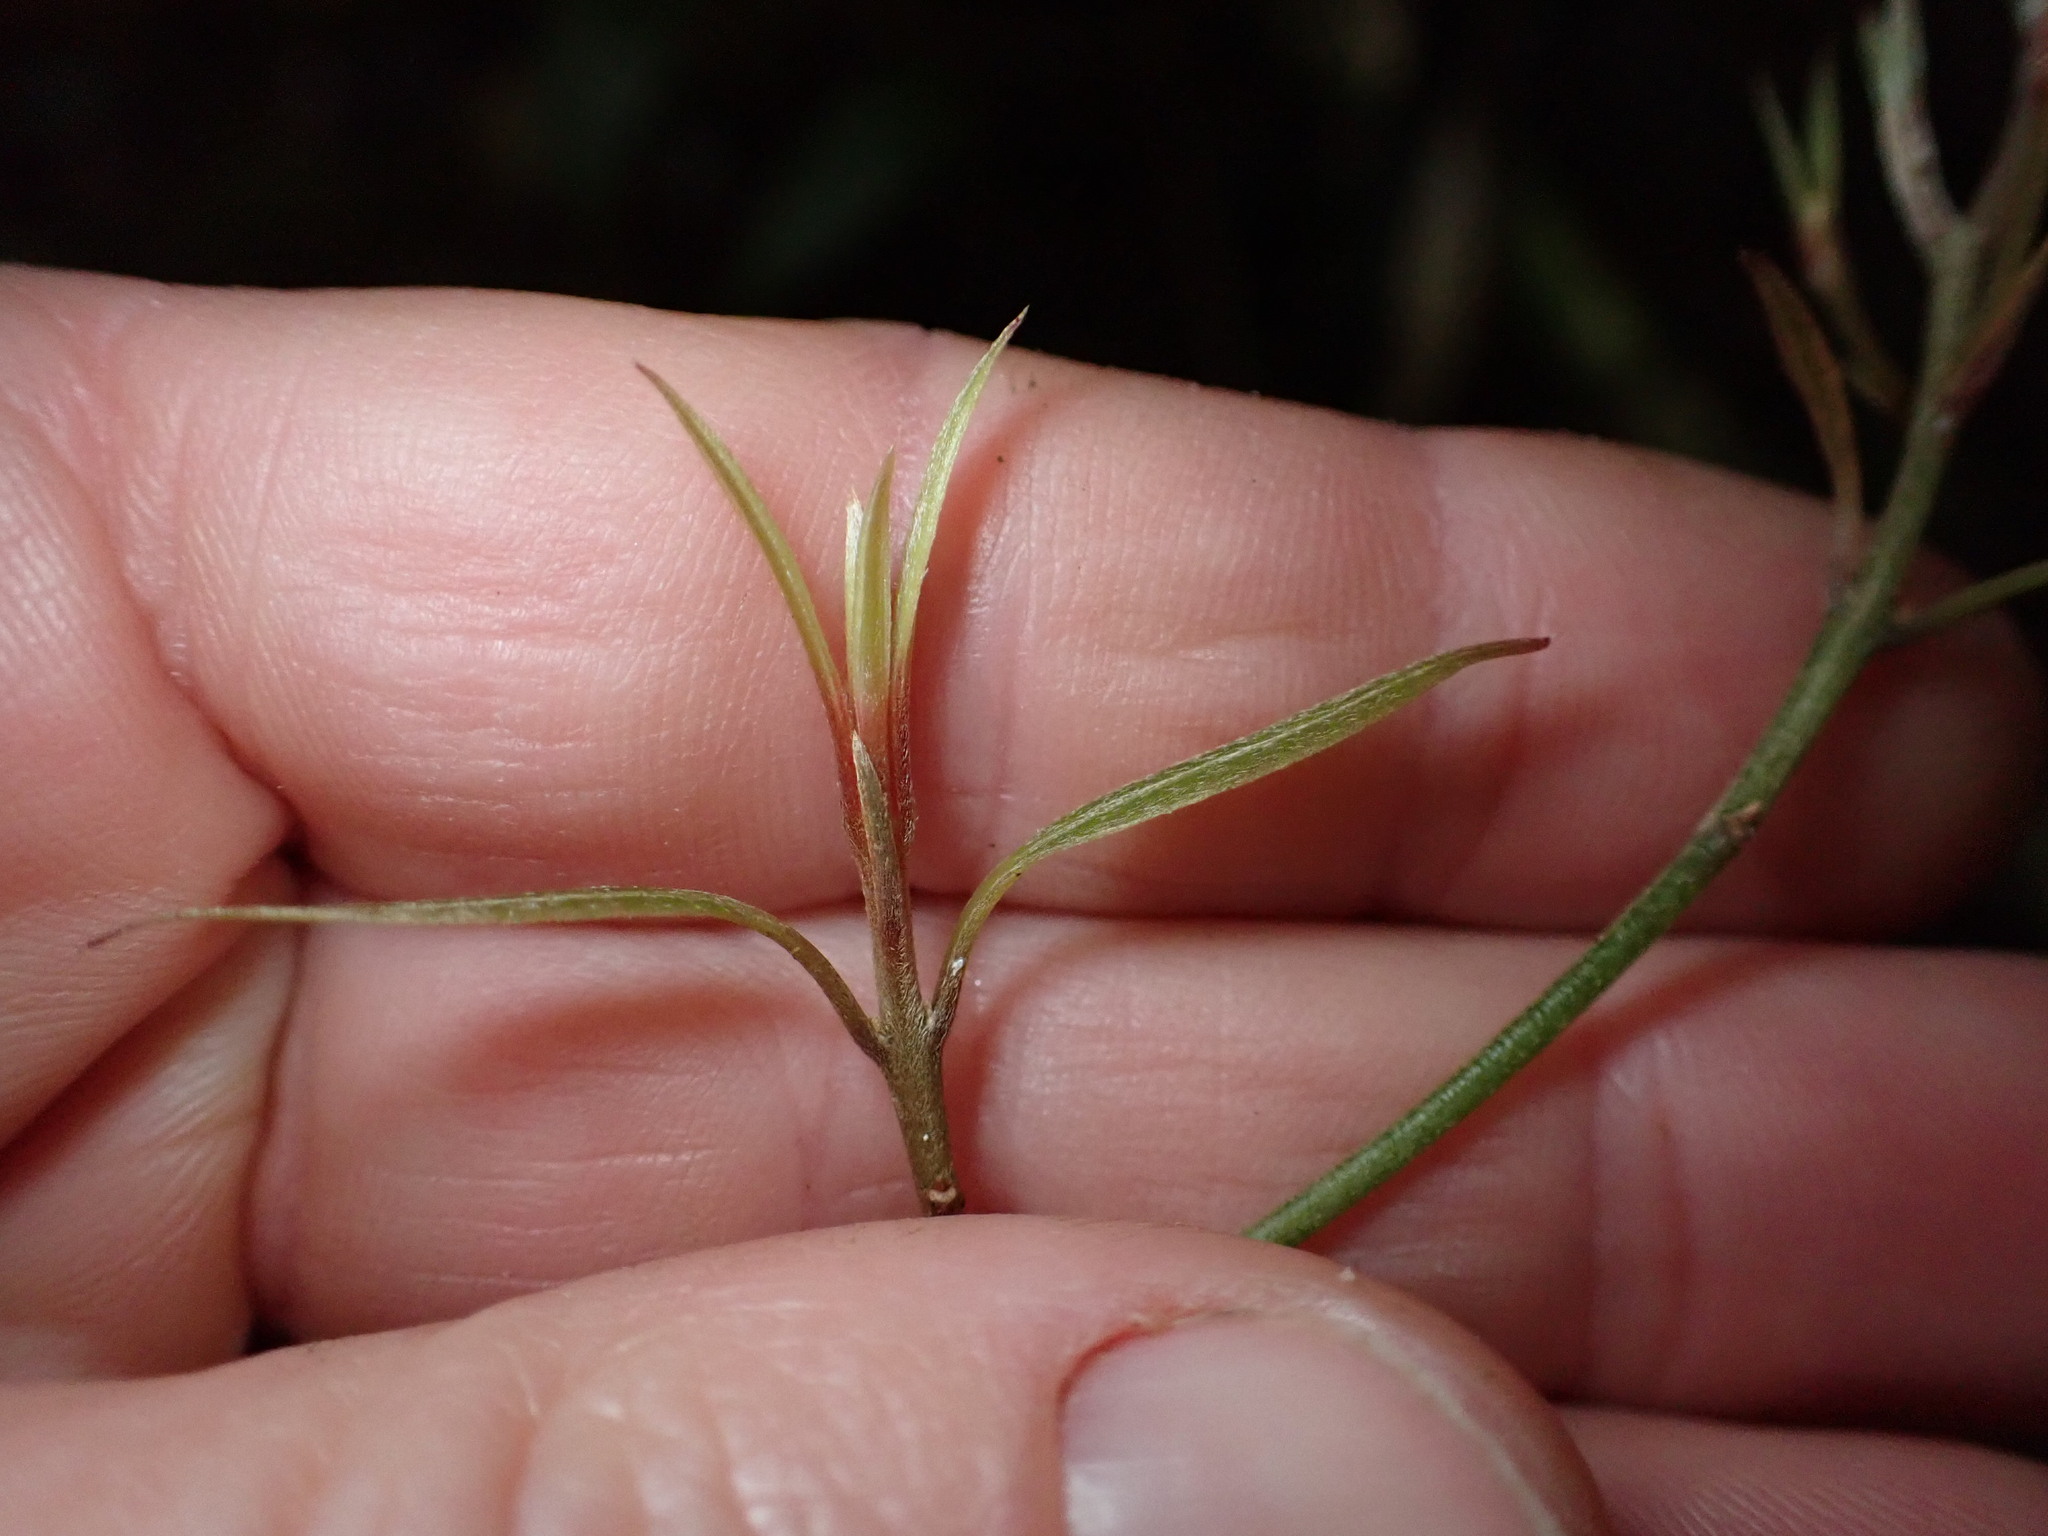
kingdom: Plantae
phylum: Tracheophyta
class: Magnoliopsida
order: Laurales
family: Lauraceae
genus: Beilschmiedia
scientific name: Beilschmiedia tawa
